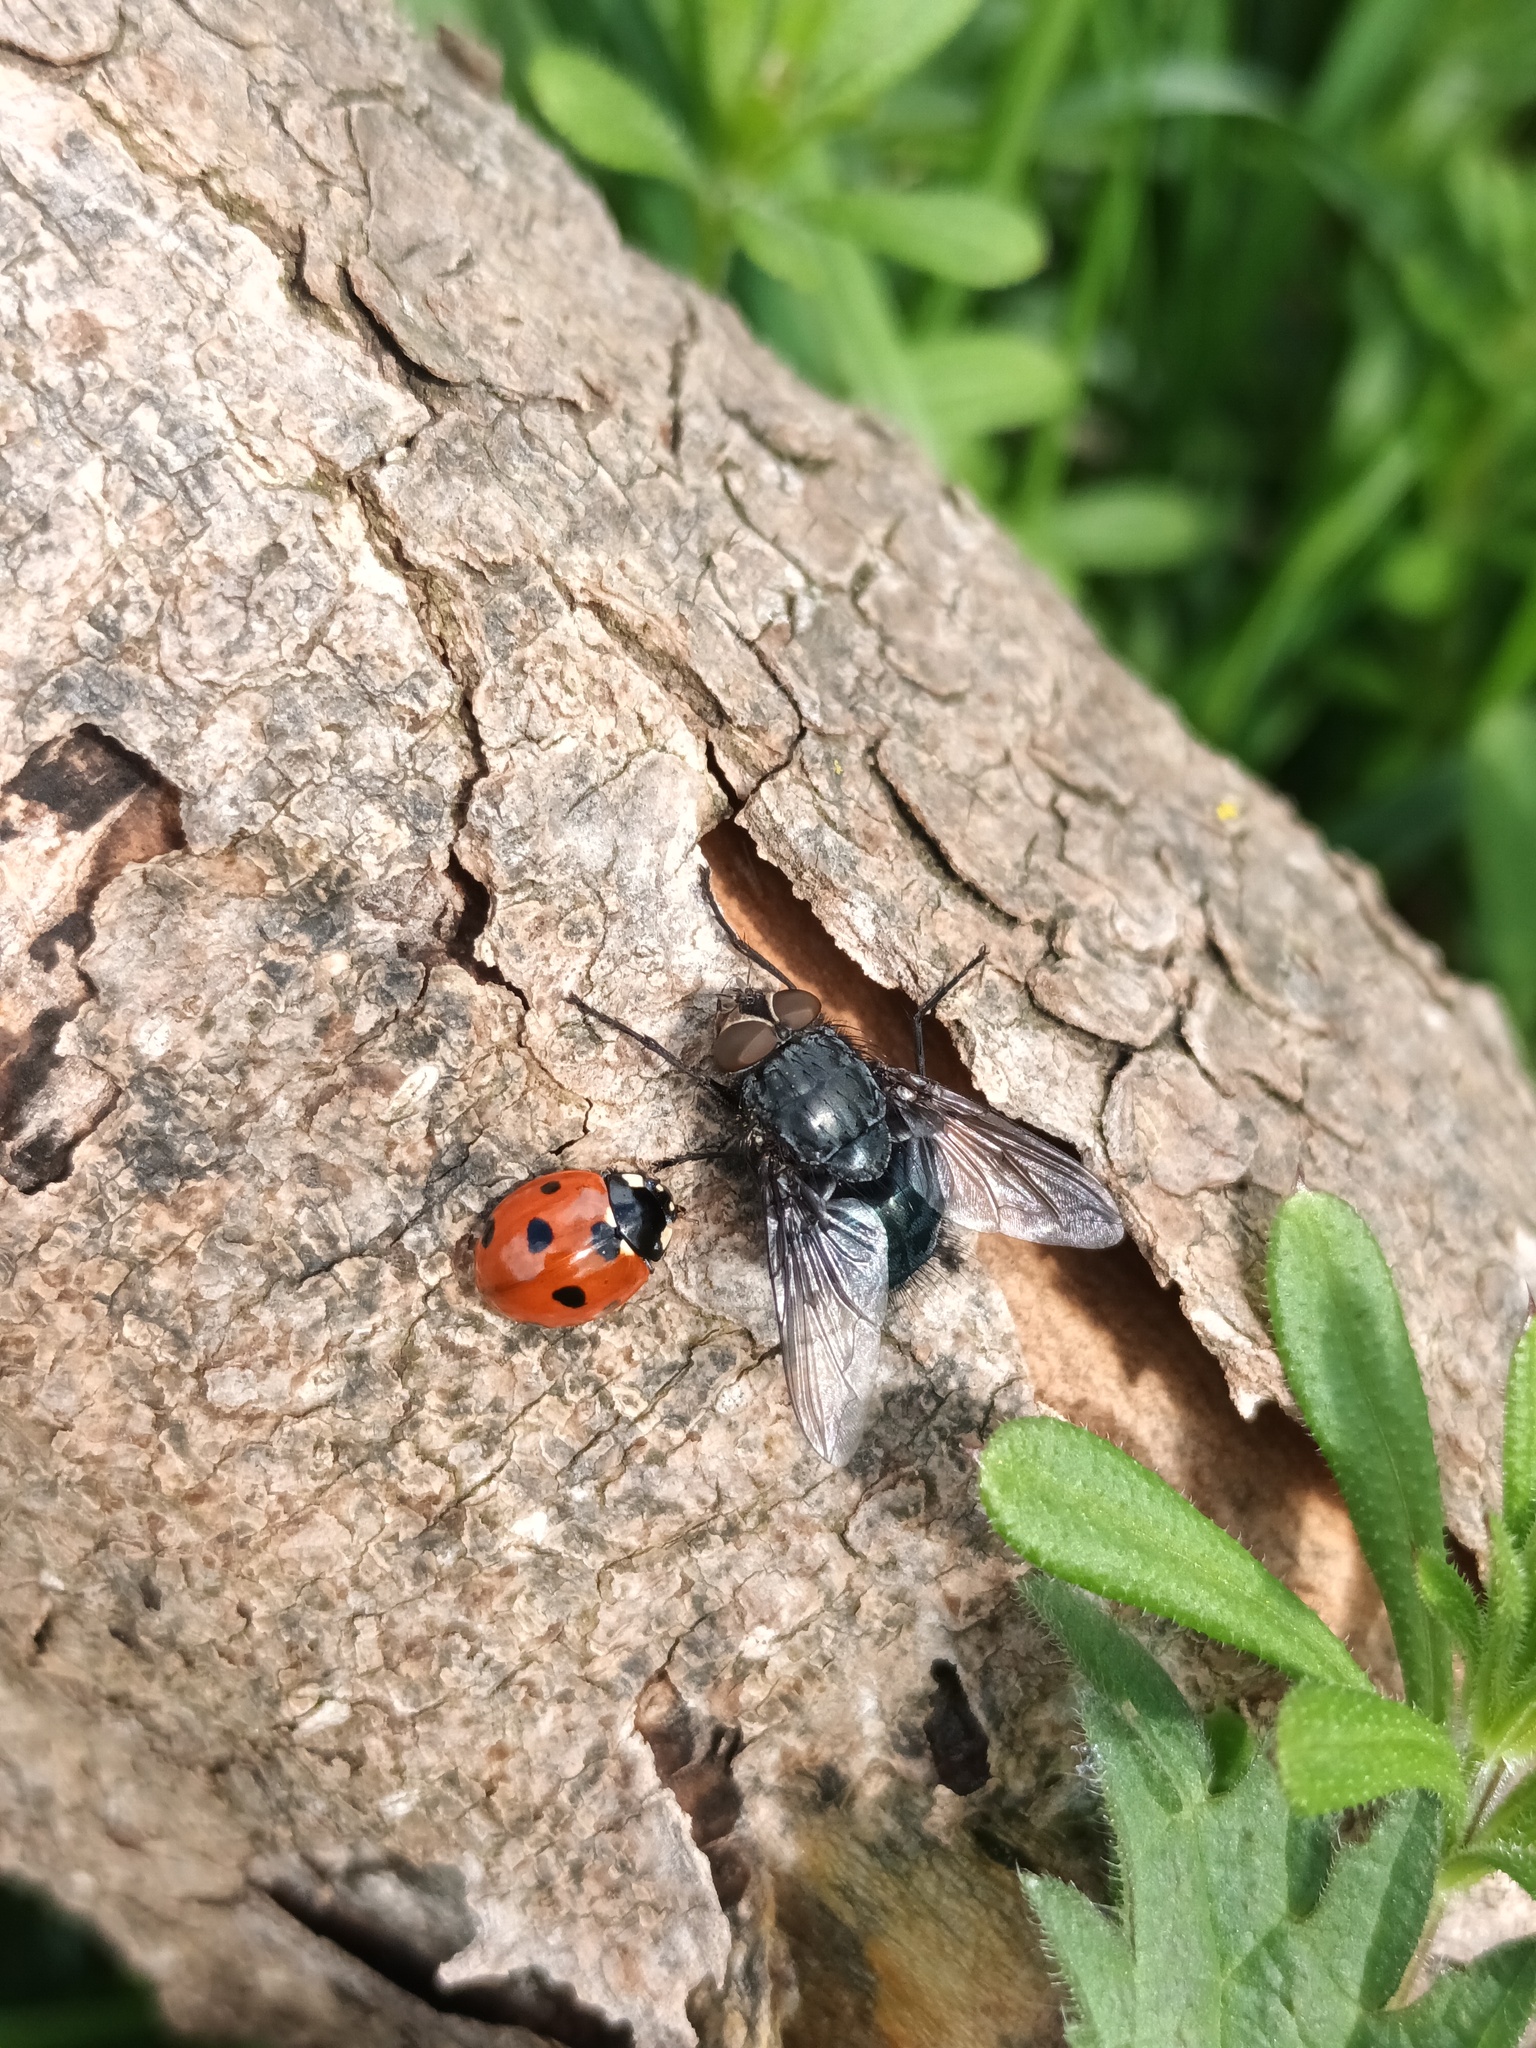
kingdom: Animalia
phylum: Arthropoda
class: Insecta
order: Coleoptera
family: Coccinellidae
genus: Coccinella
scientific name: Coccinella septempunctata
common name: Sevenspotted lady beetle
